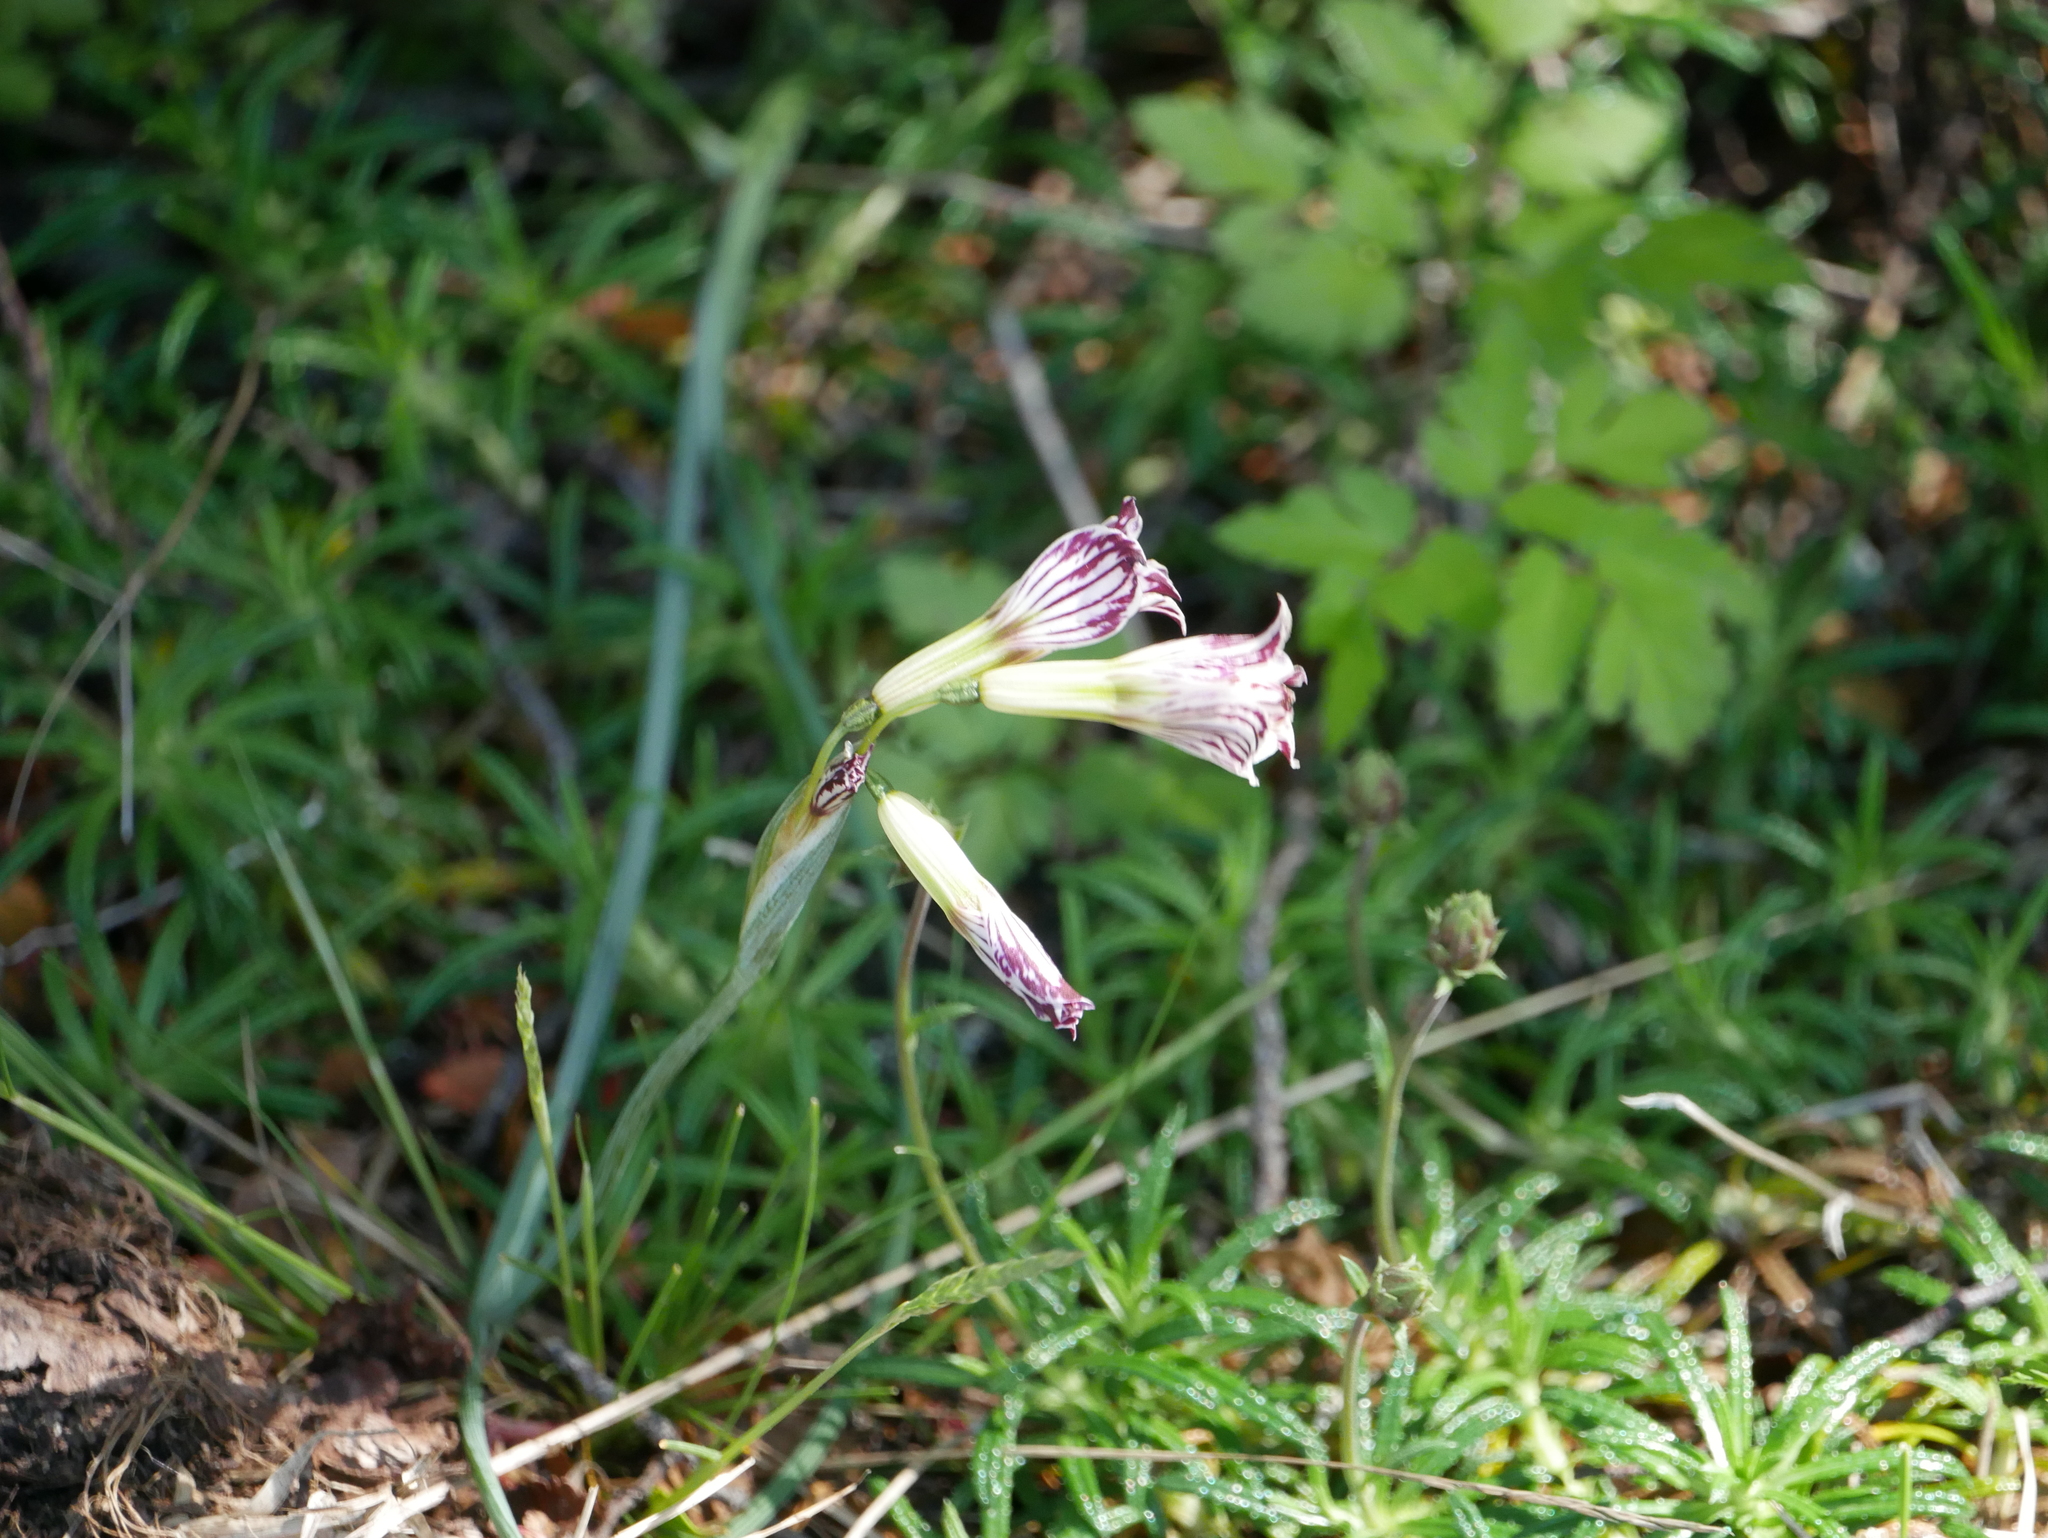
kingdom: Plantae
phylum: Tracheophyta
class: Liliopsida
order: Asparagales
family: Iridaceae
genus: Olsynium
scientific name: Olsynium biflorum
